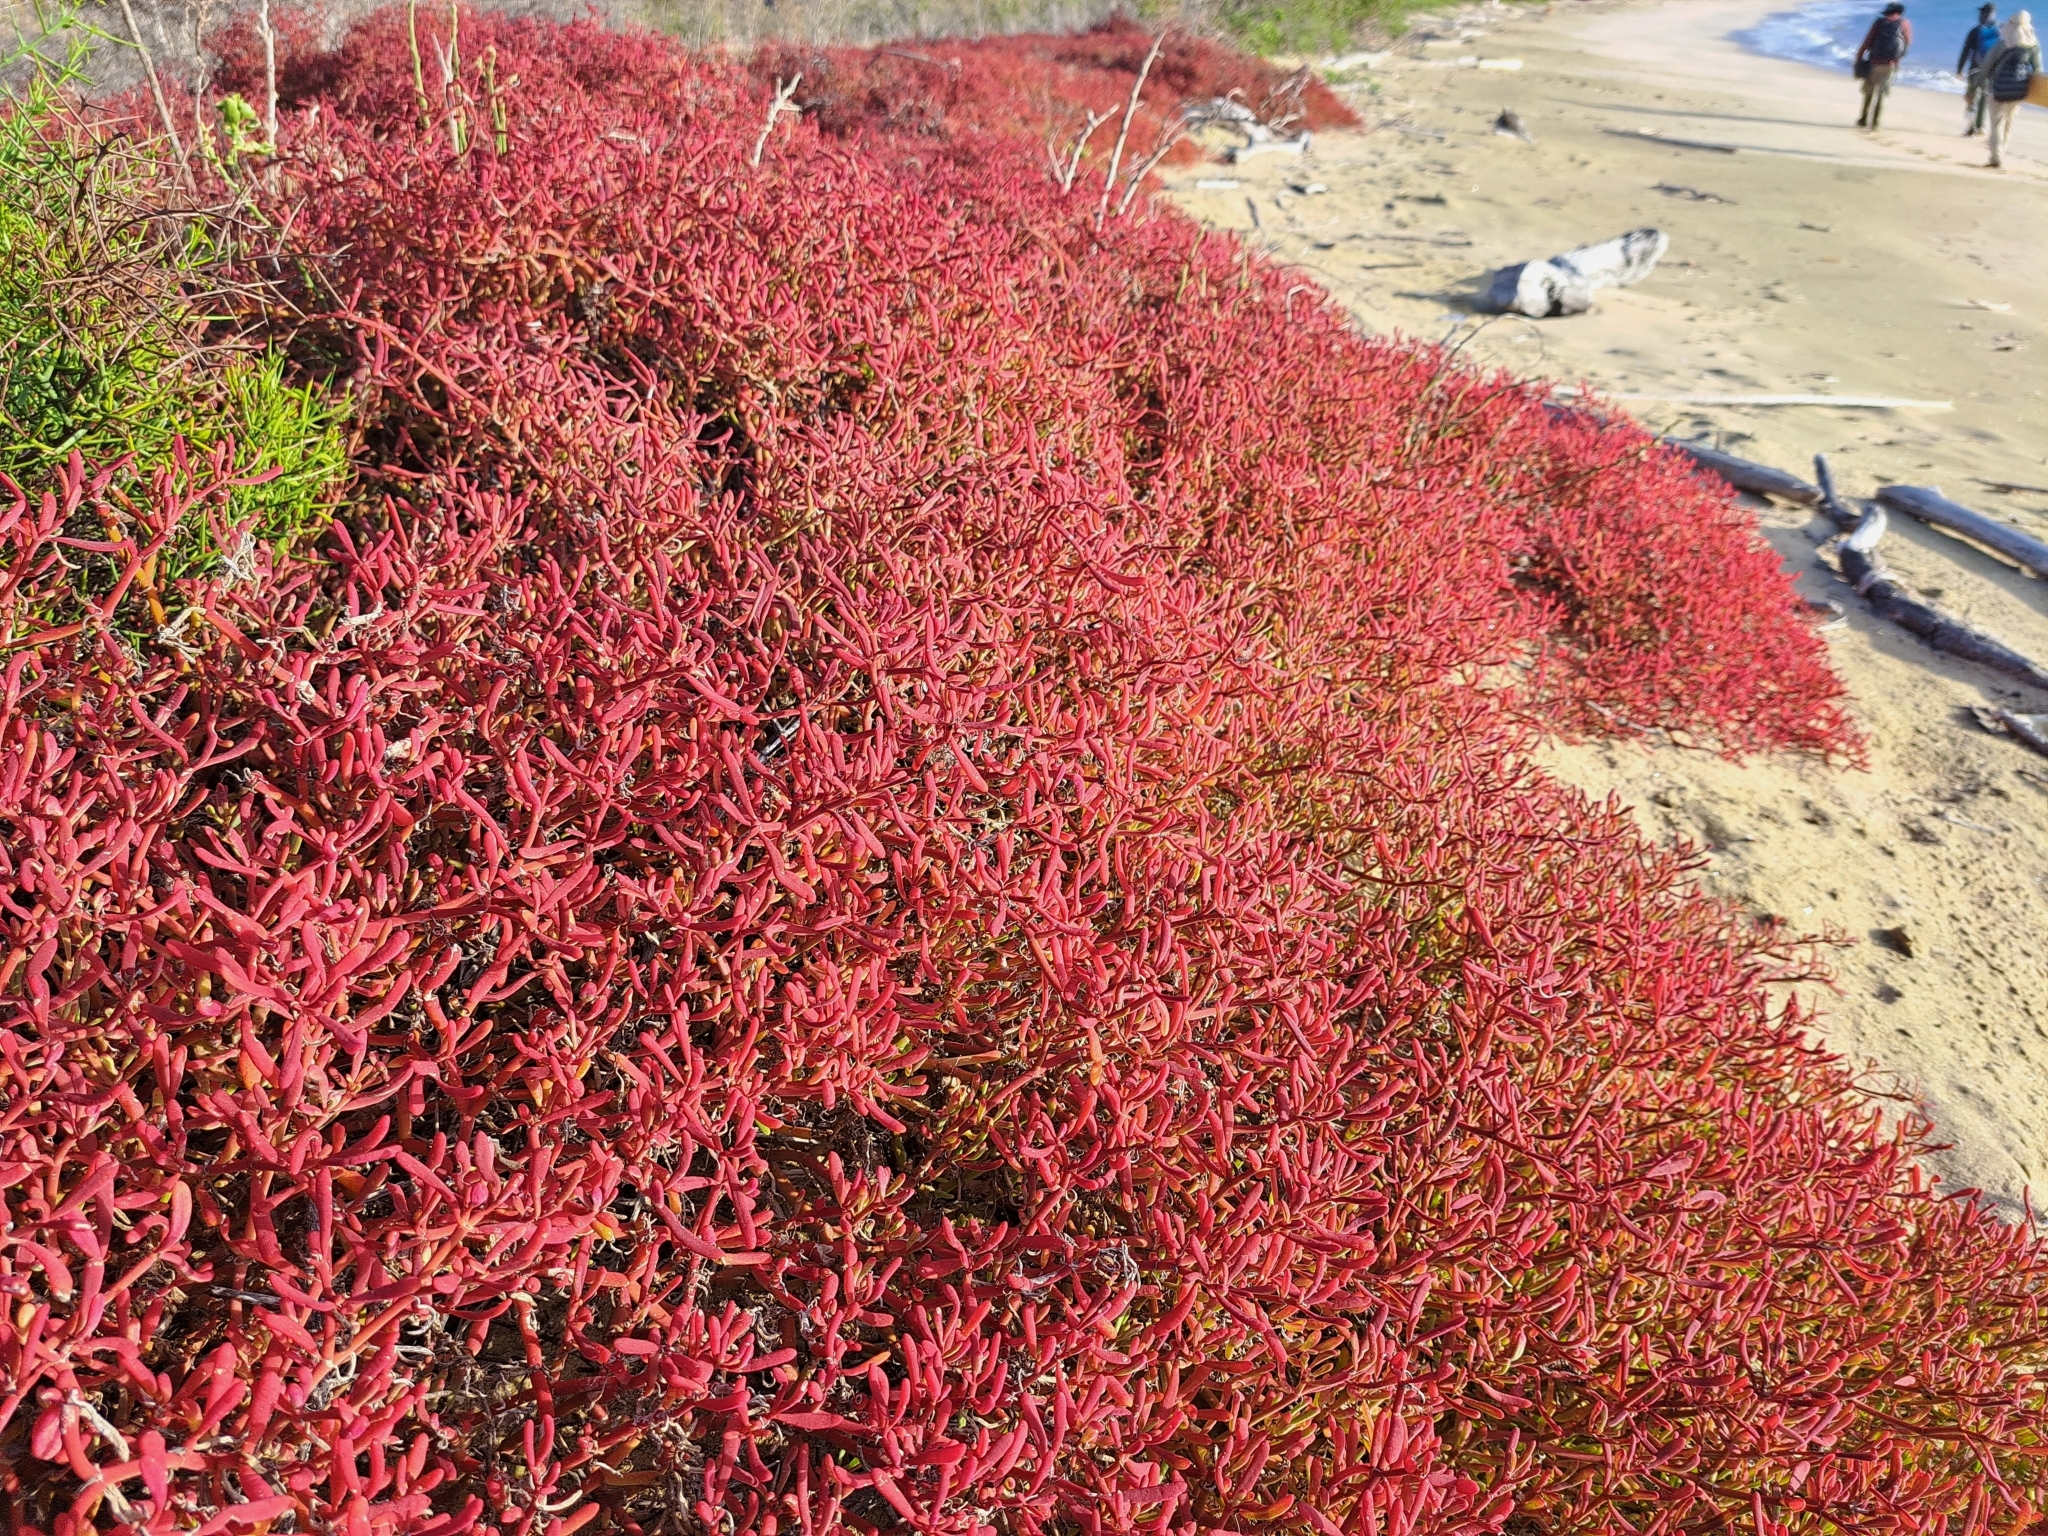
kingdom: Plantae
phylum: Tracheophyta
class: Magnoliopsida
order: Caryophyllales
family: Aizoaceae
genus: Sesuvium
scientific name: Sesuvium edmonstonei
